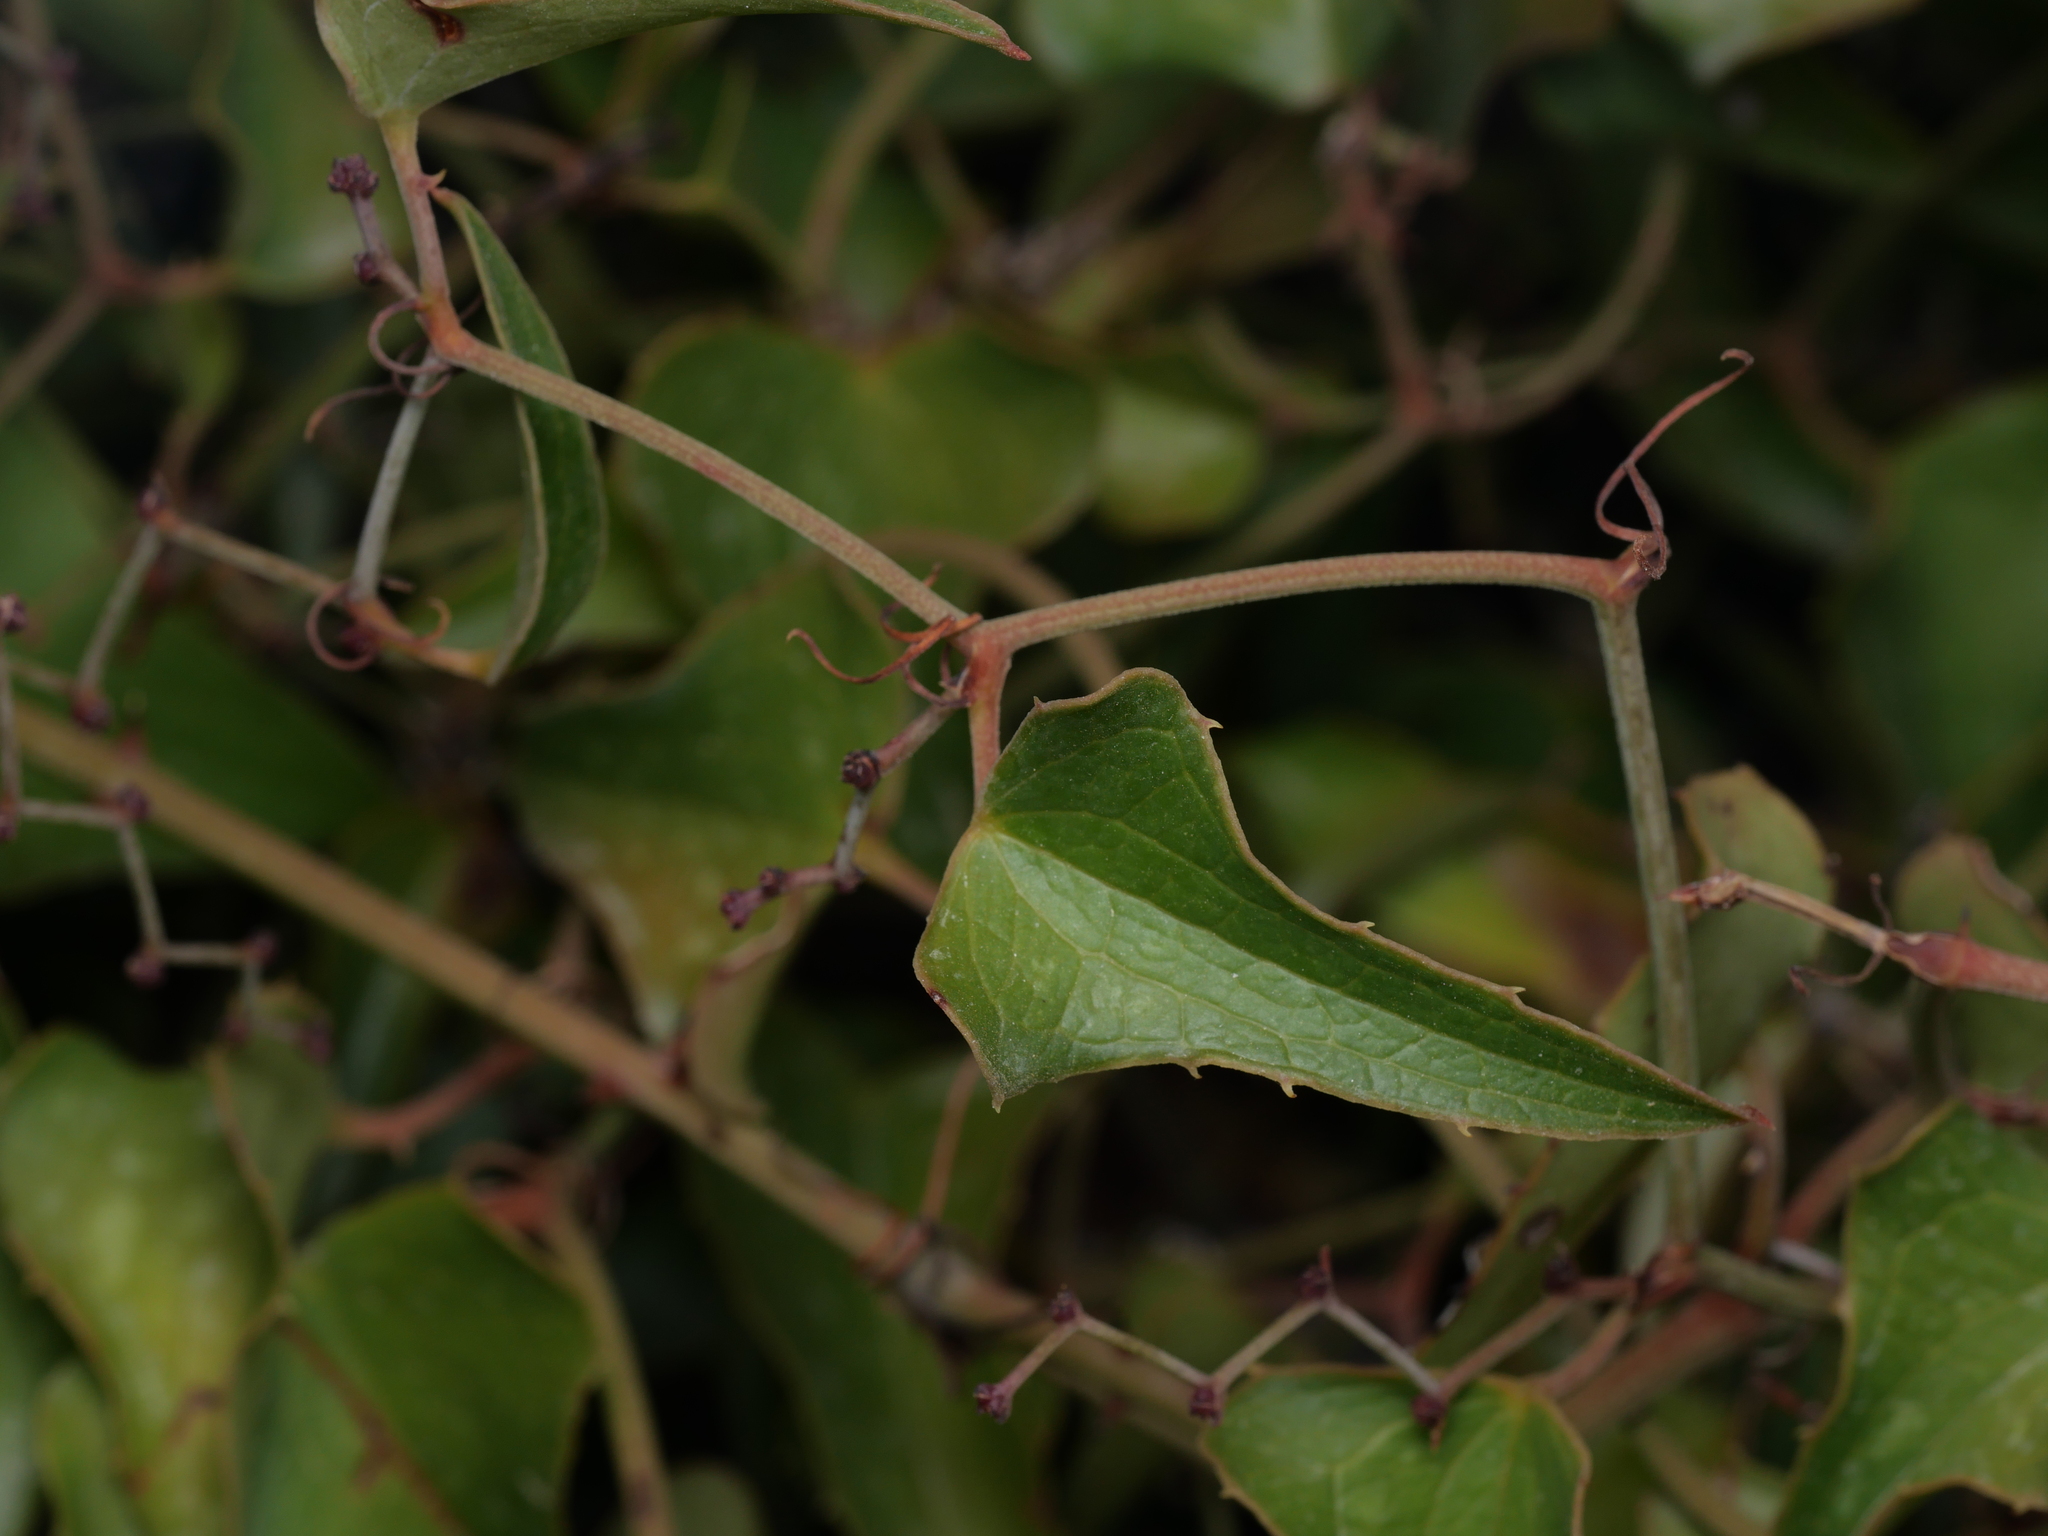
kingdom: Plantae
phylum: Tracheophyta
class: Liliopsida
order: Liliales
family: Smilacaceae
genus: Smilax
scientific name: Smilax aspera
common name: Common smilax
